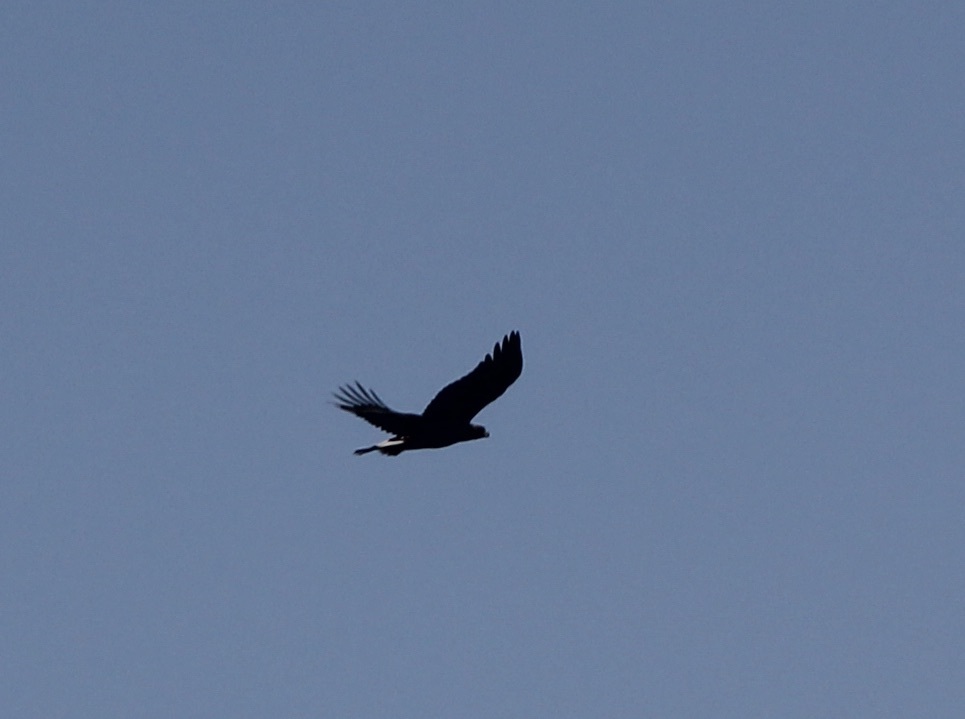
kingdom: Animalia
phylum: Chordata
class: Aves
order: Accipitriformes
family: Accipitridae
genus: Aquila
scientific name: Aquila chrysaetos
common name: Golden eagle
